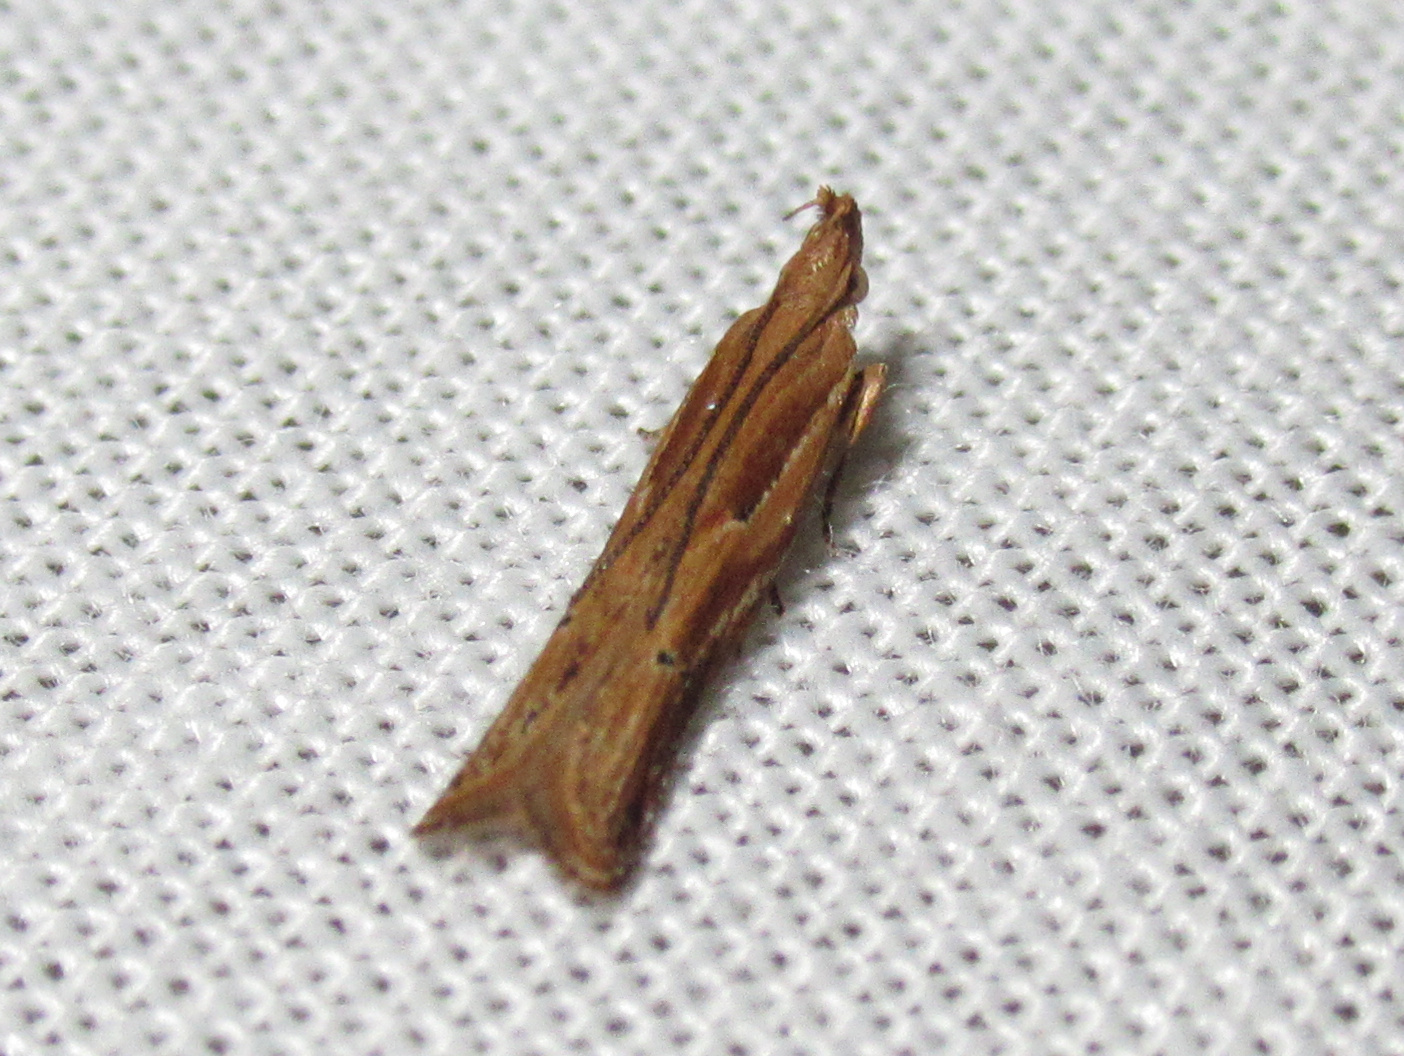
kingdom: Animalia
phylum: Arthropoda
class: Insecta
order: Lepidoptera
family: Depressariidae
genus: Eutorna
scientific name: Eutorna symmorpha
